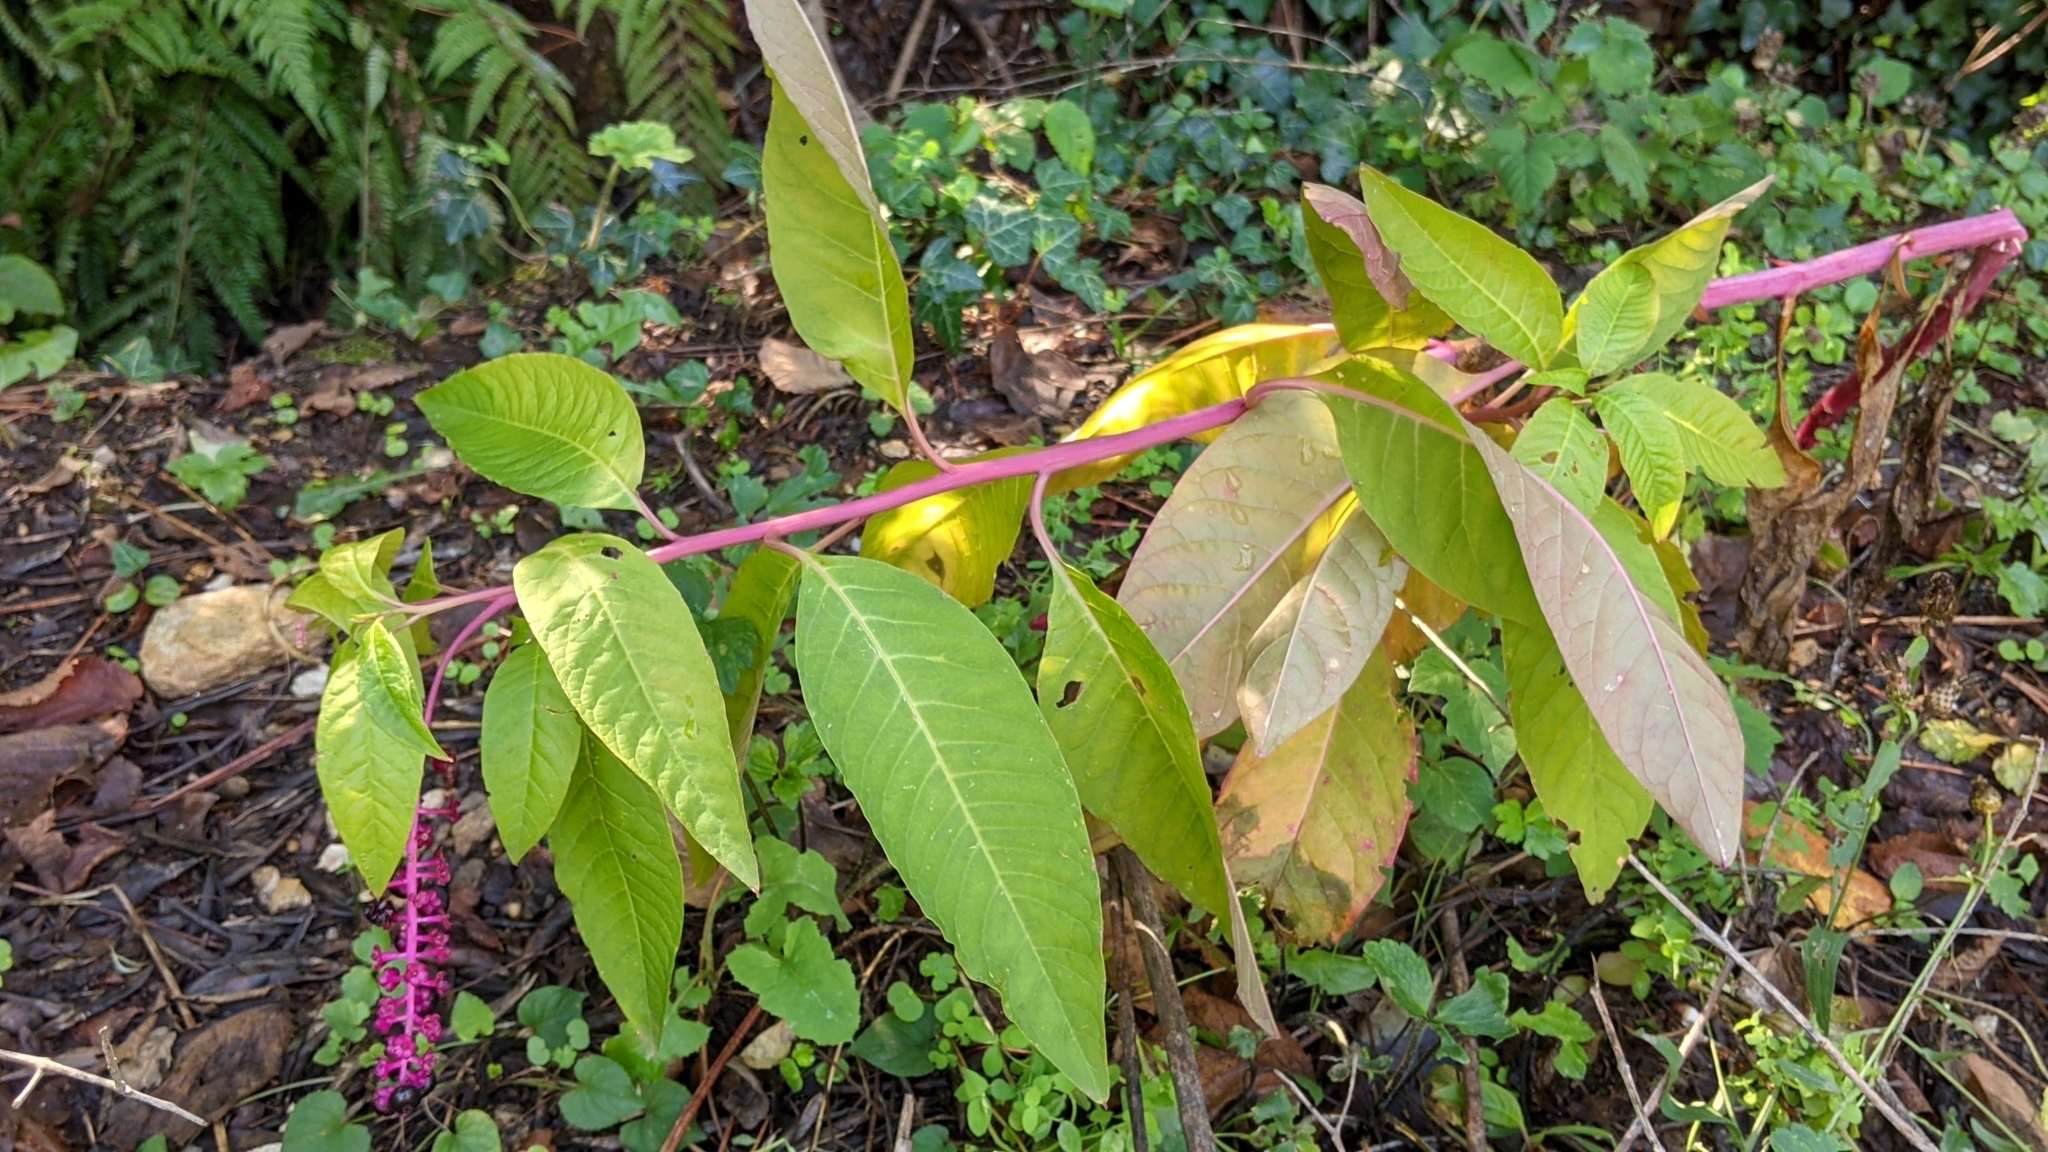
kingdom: Plantae
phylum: Tracheophyta
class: Magnoliopsida
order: Caryophyllales
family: Phytolaccaceae
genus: Phytolacca
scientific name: Phytolacca americana
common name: American pokeweed
